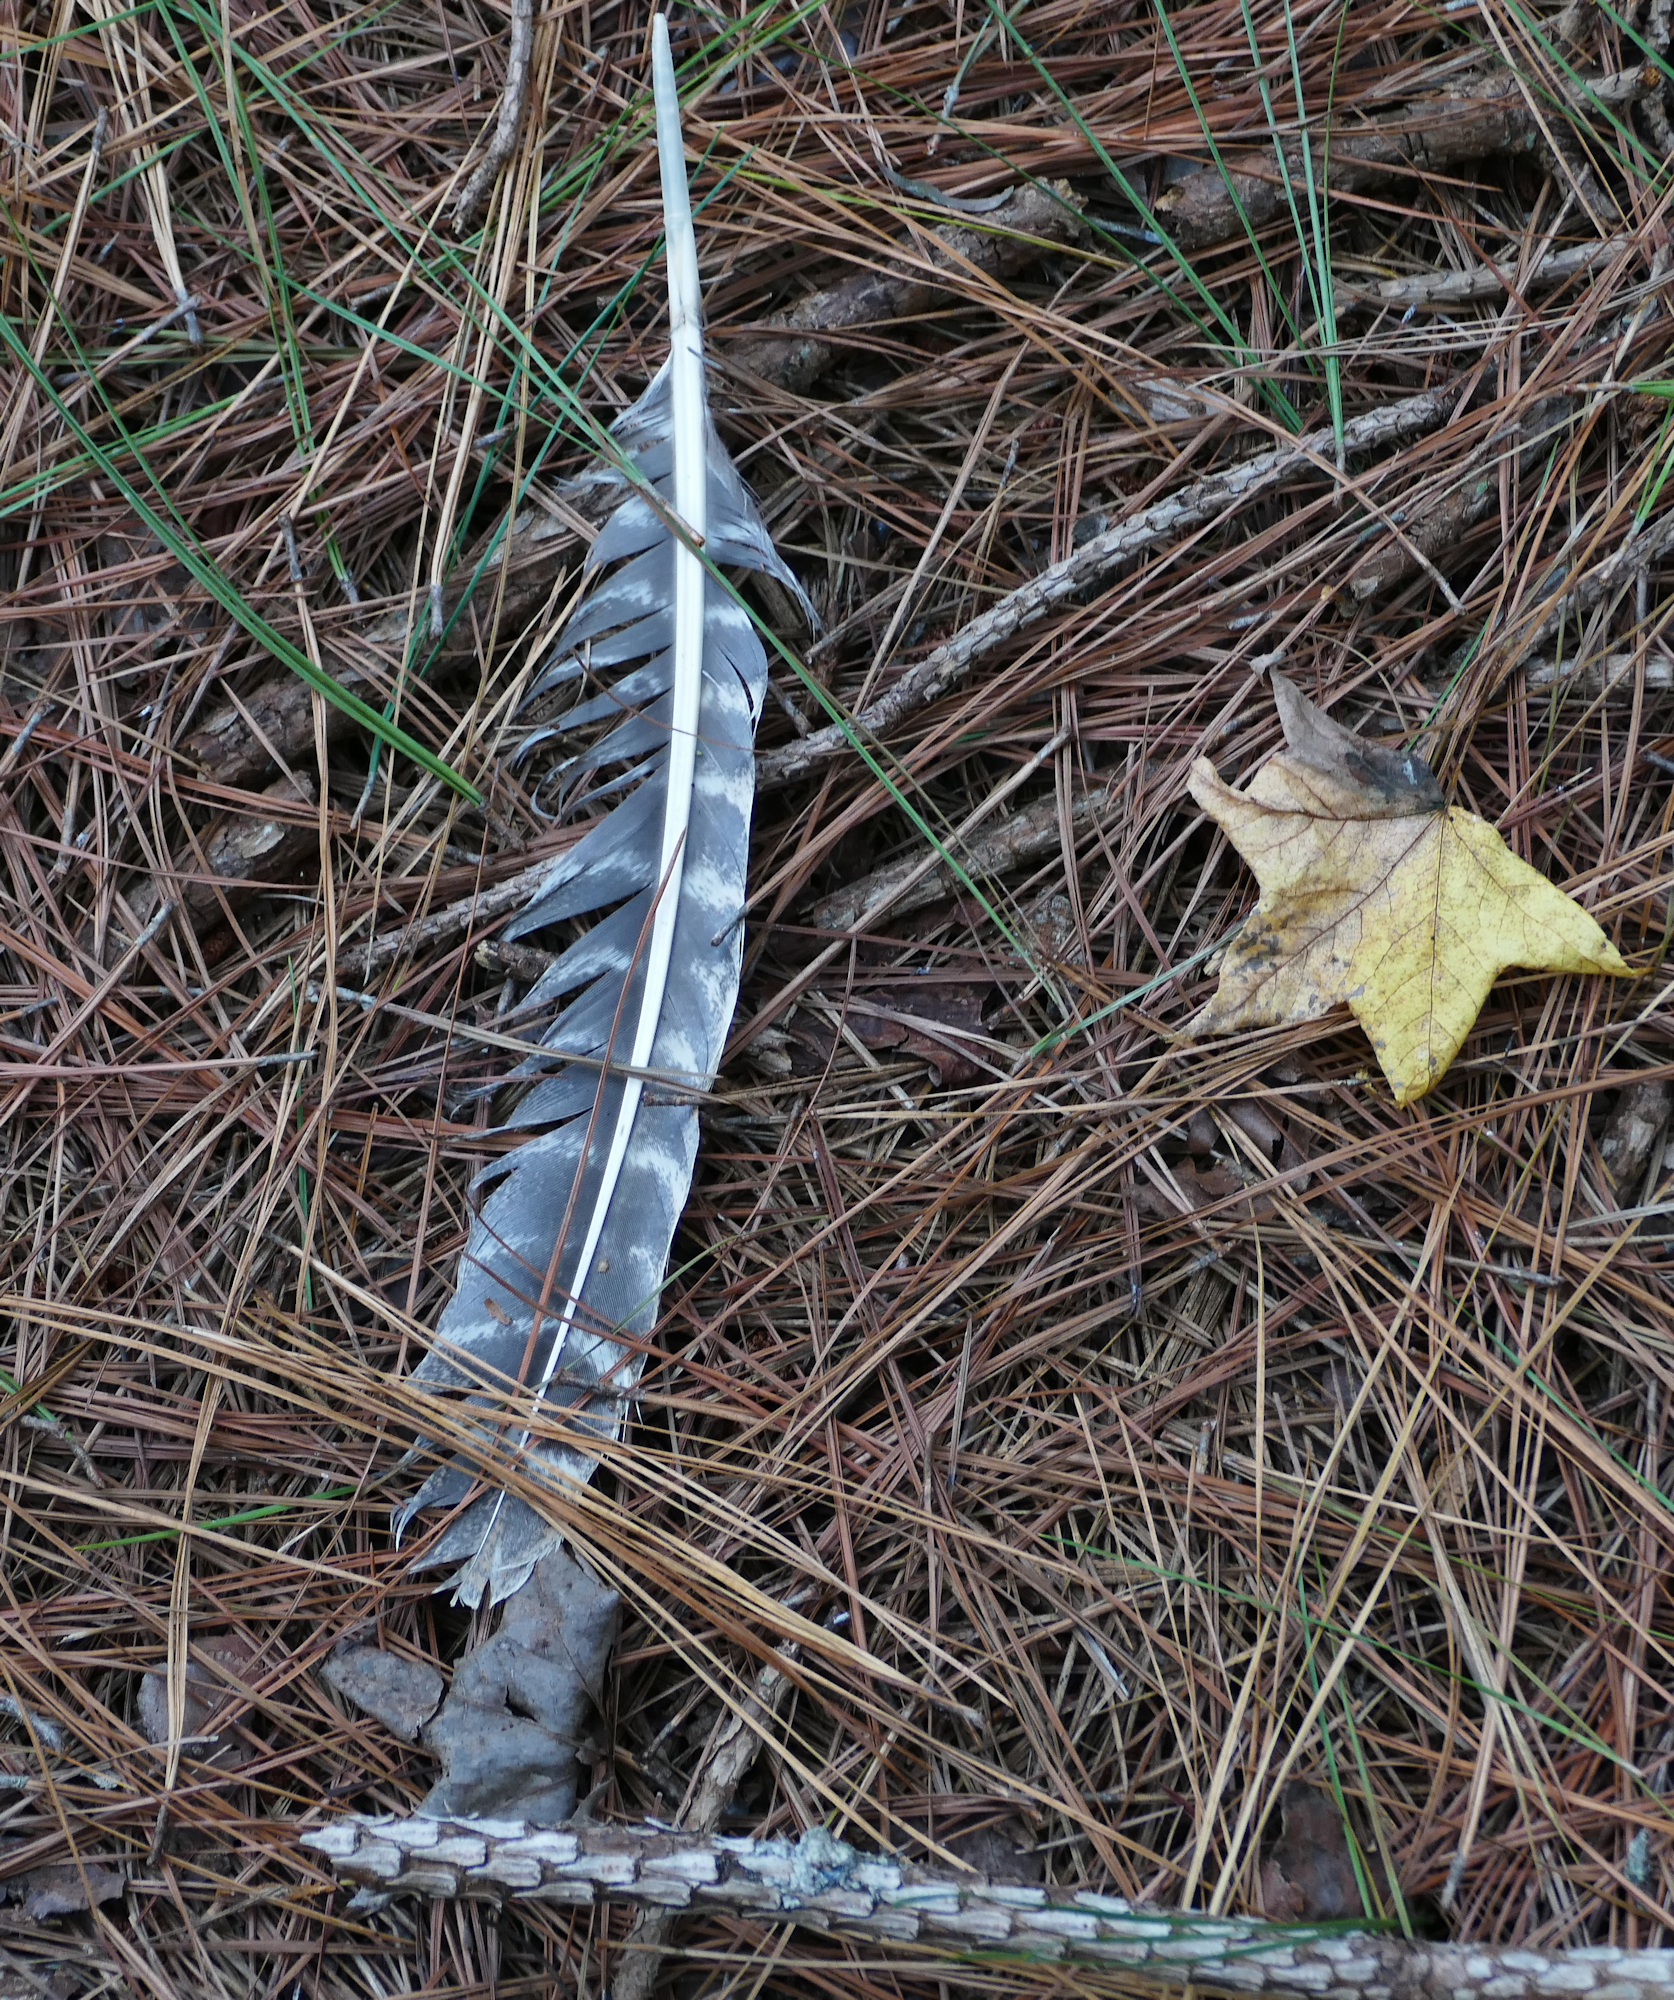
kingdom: Animalia
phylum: Chordata
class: Aves
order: Galliformes
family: Phasianidae
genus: Meleagris
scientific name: Meleagris gallopavo
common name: Wild turkey
